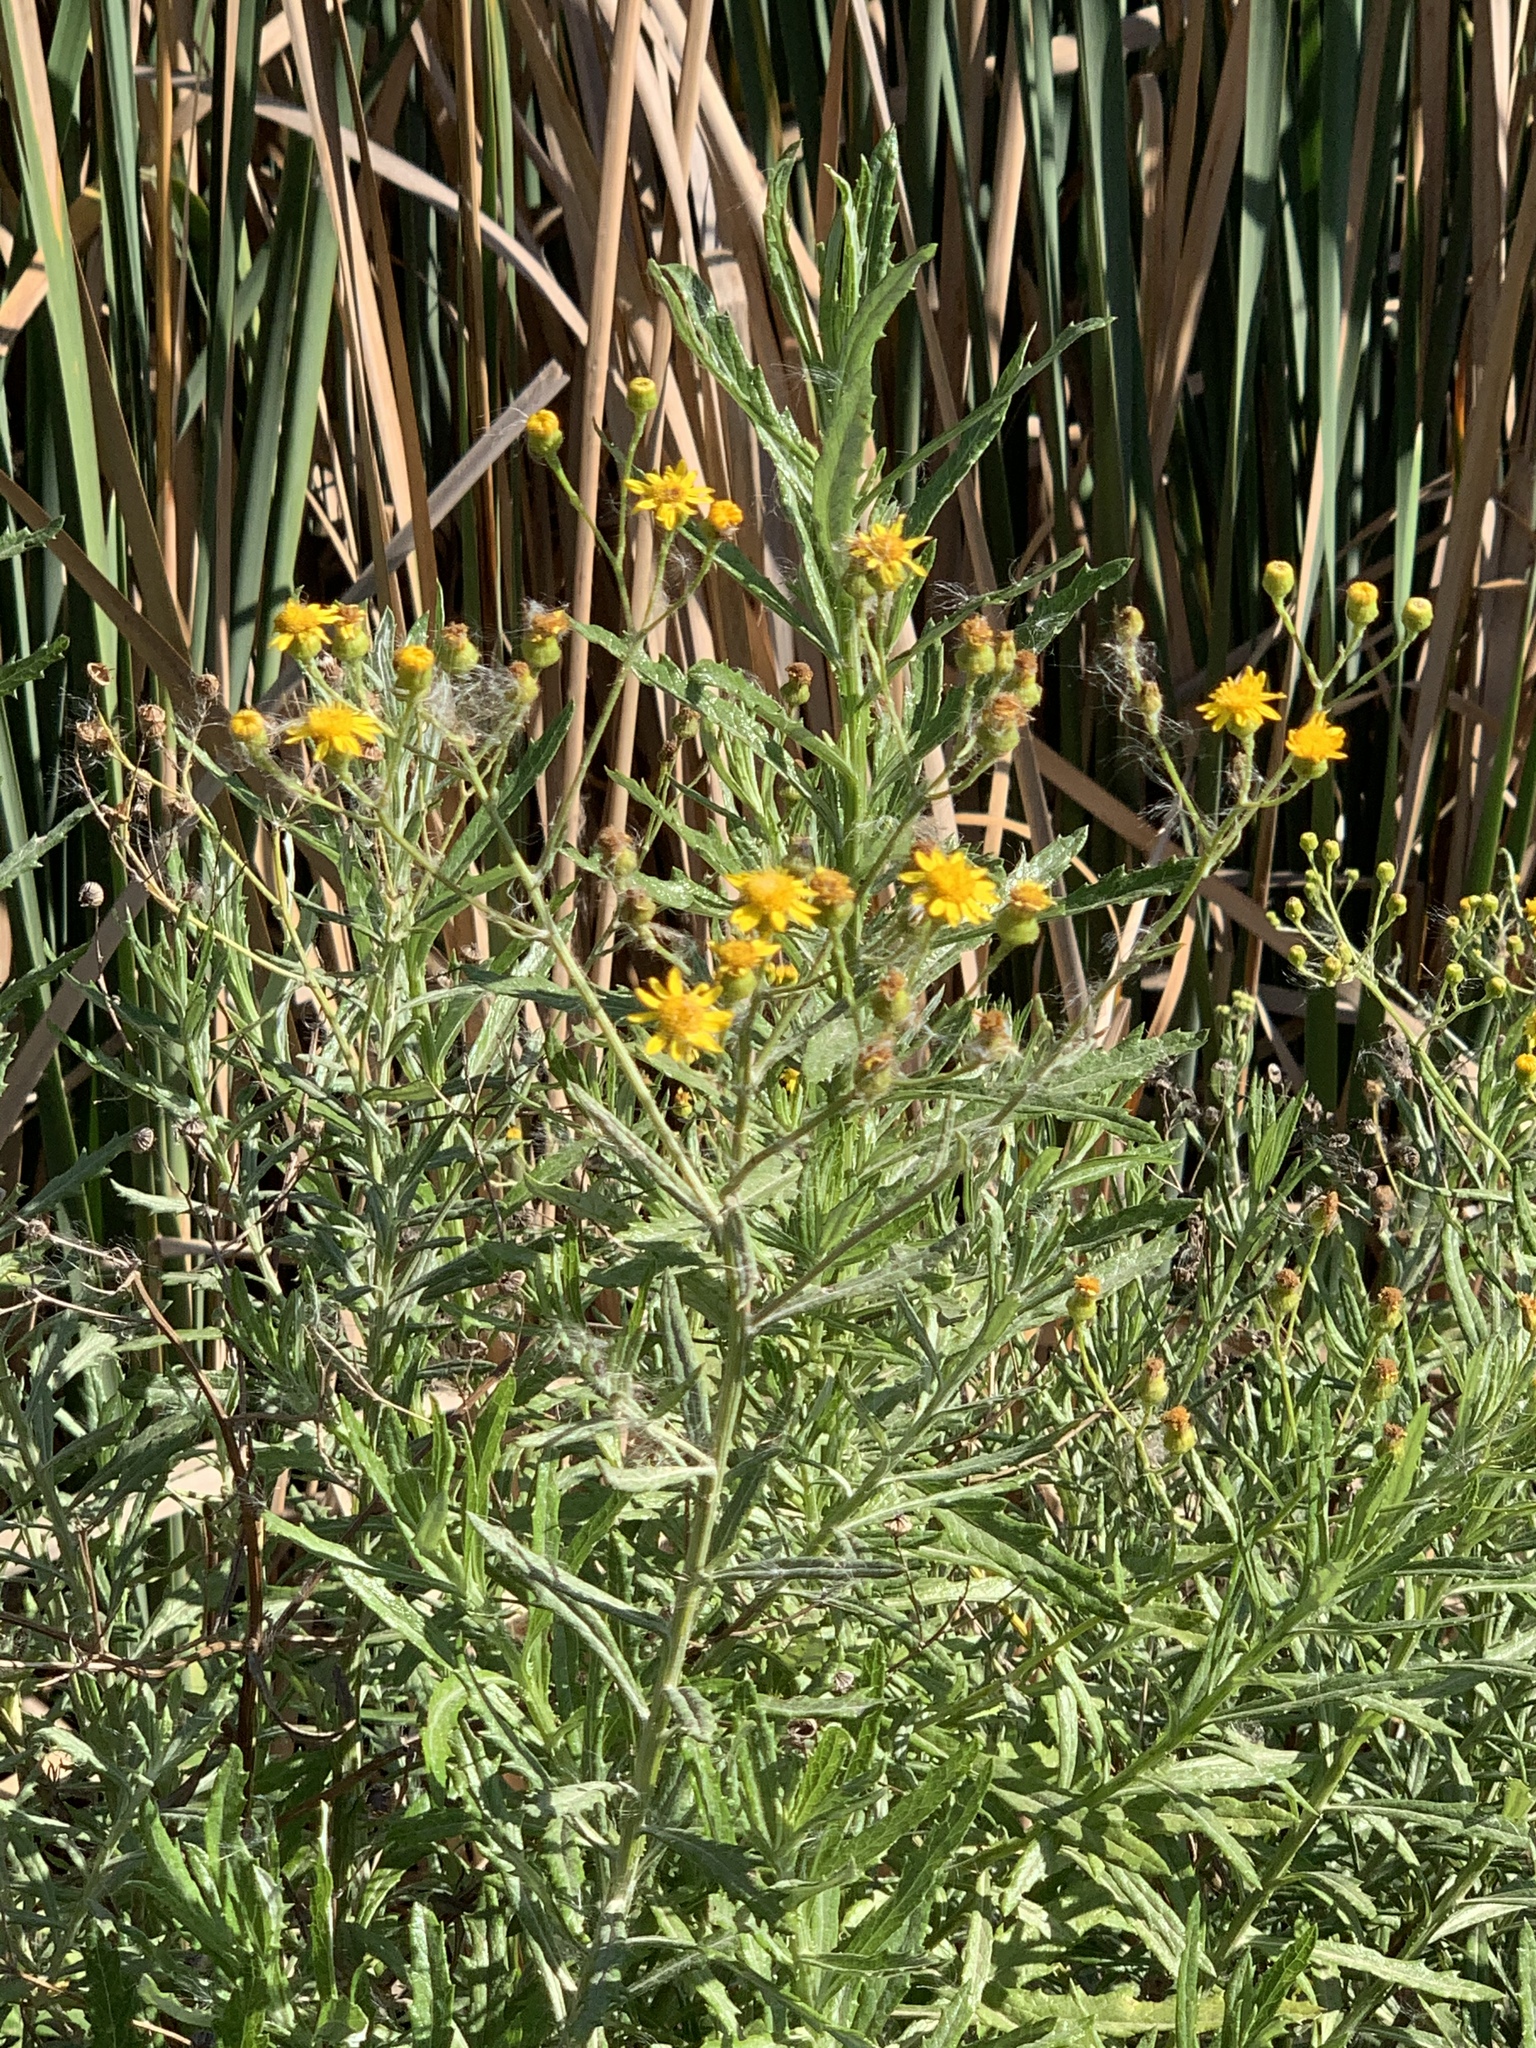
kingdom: Plantae
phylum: Tracheophyta
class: Magnoliopsida
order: Asterales
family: Asteraceae
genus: Senecio
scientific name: Senecio pterophorus
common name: Shoddy ragwort
